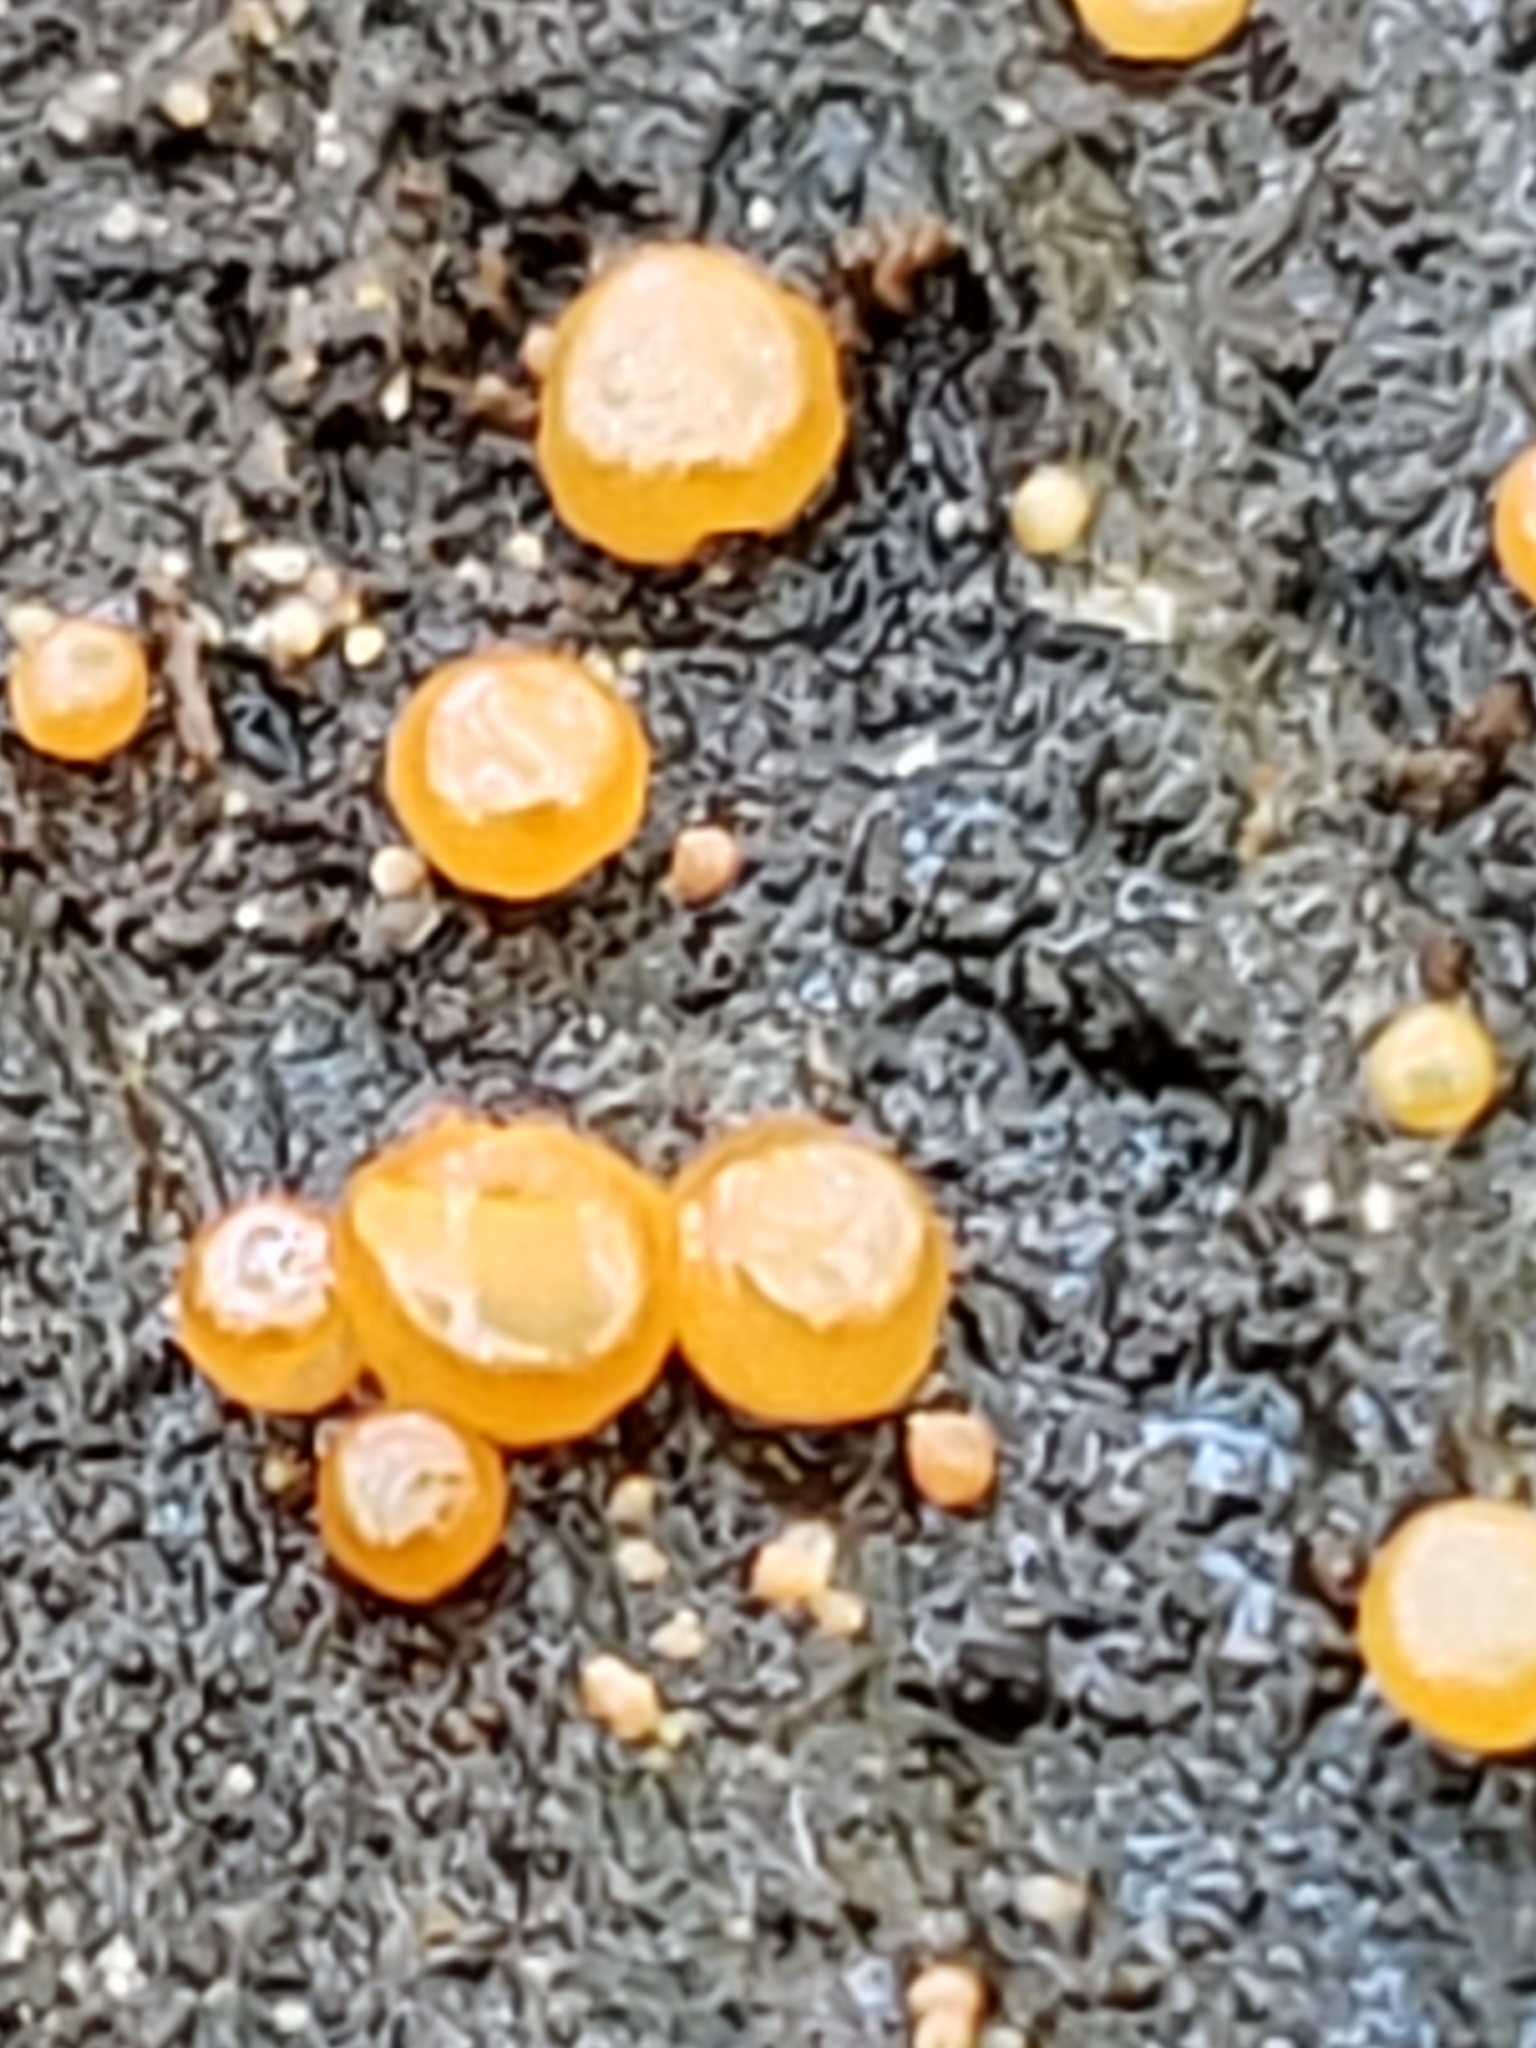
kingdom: Fungi
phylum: Basidiomycota
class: Dacrymycetes
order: Dacrymycetales
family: Dacrymycetaceae
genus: Dacrymyces
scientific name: Dacrymyces stillatus
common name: Common jelly spot
